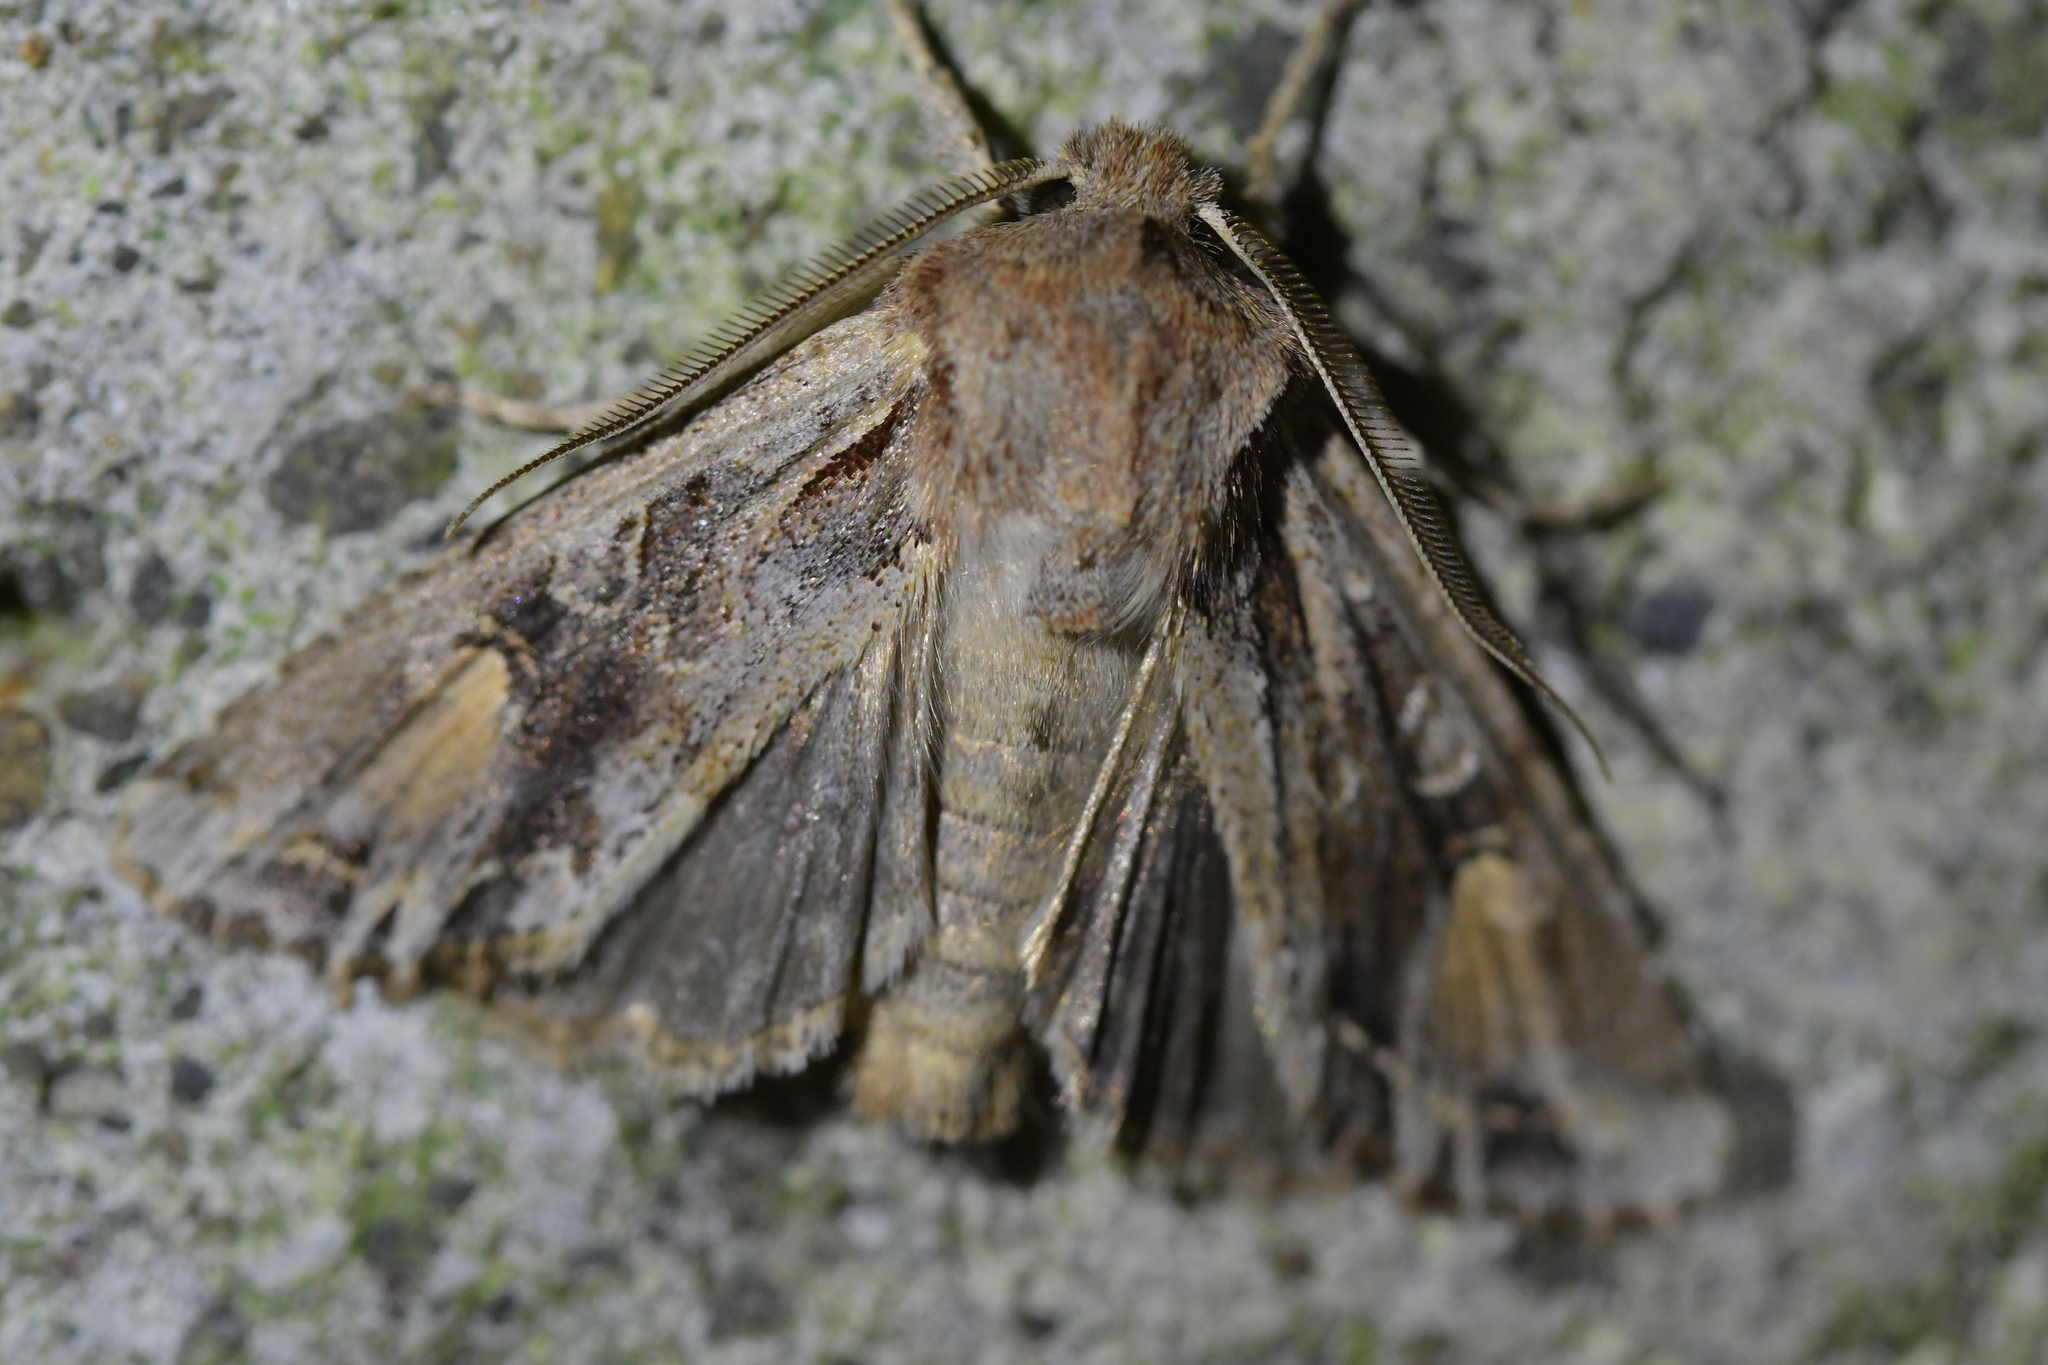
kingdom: Animalia
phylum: Arthropoda
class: Insecta
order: Lepidoptera
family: Noctuidae
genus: Ichneutica
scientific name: Ichneutica
